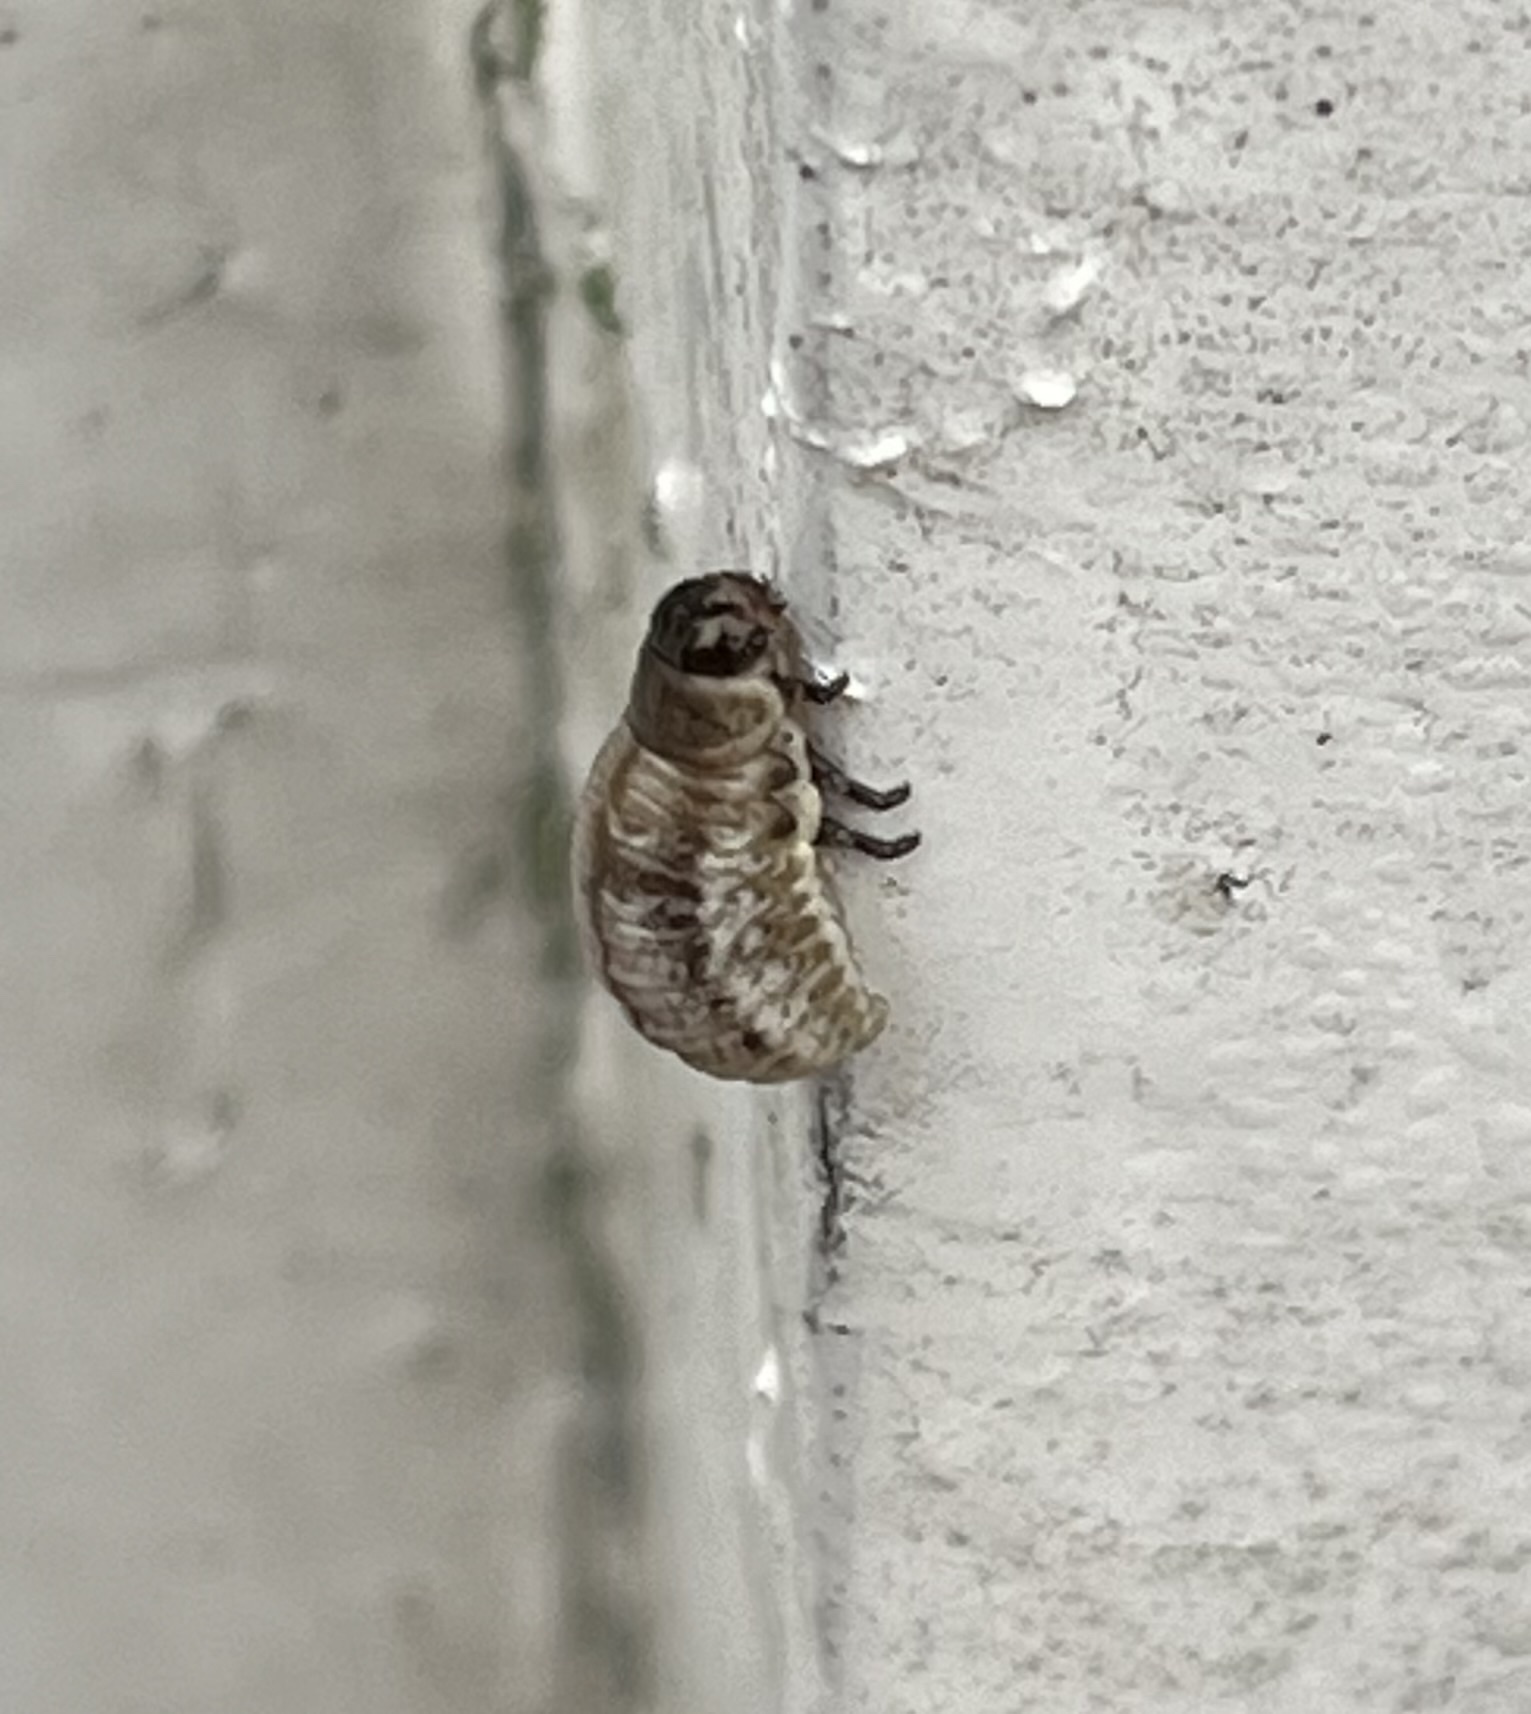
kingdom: Animalia
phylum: Arthropoda
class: Insecta
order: Coleoptera
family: Chrysomelidae
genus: Chrysolina
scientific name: Chrysolina americana
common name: Rosemary beetle
